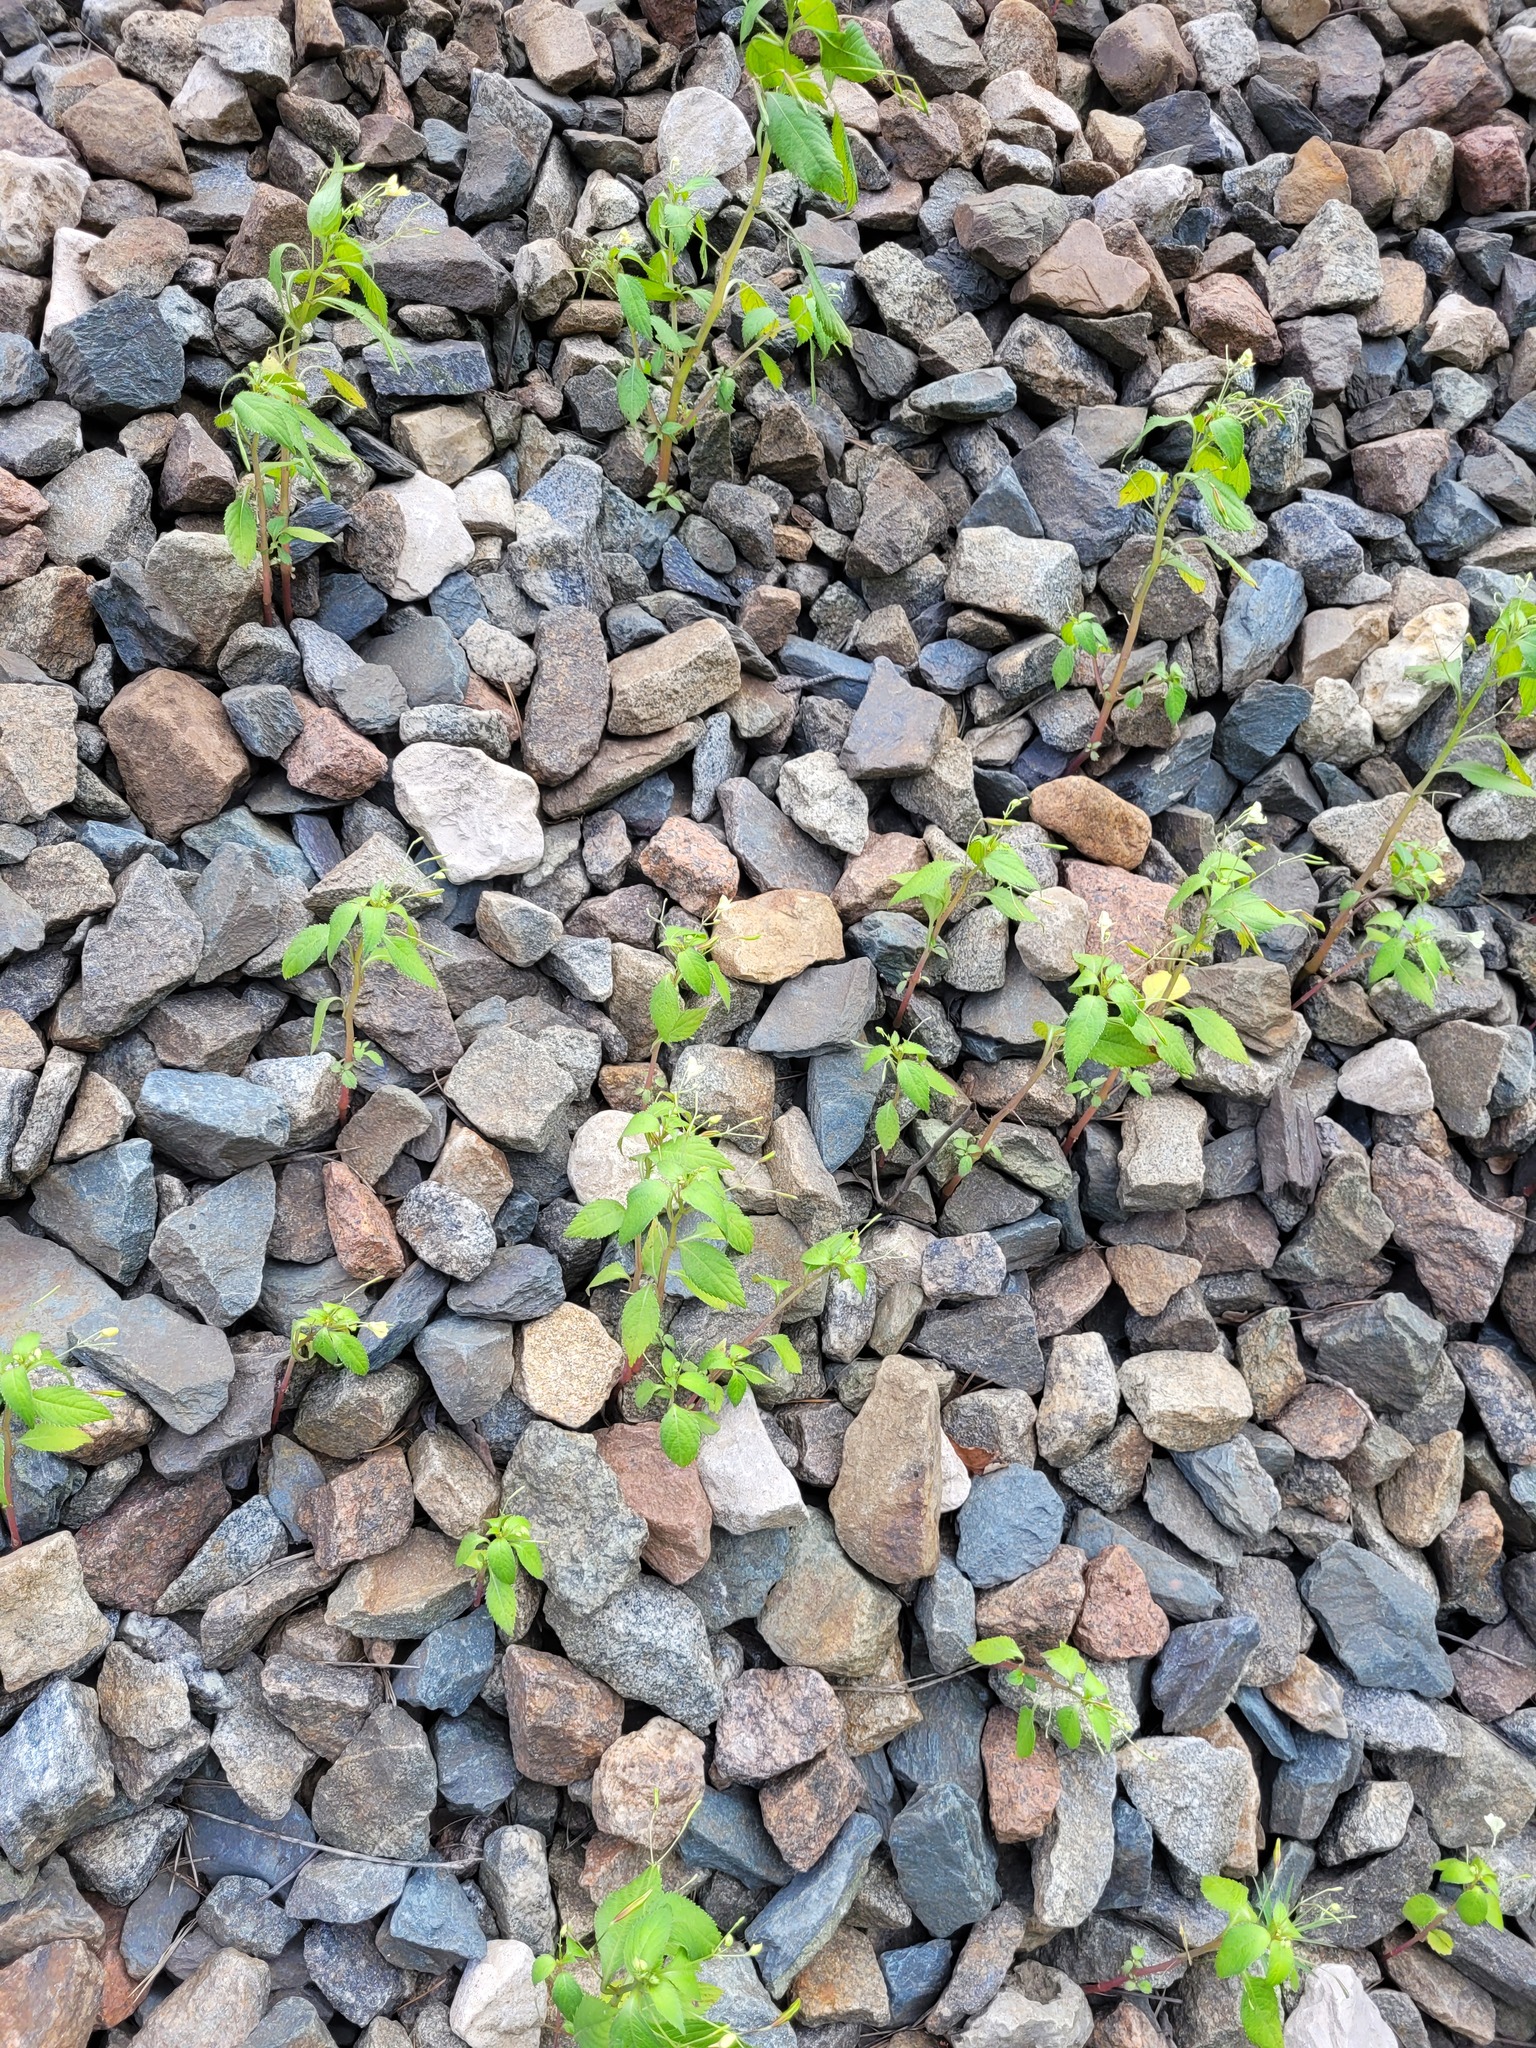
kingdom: Plantae
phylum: Tracheophyta
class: Magnoliopsida
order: Ericales
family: Balsaminaceae
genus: Impatiens
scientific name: Impatiens parviflora
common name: Small balsam
